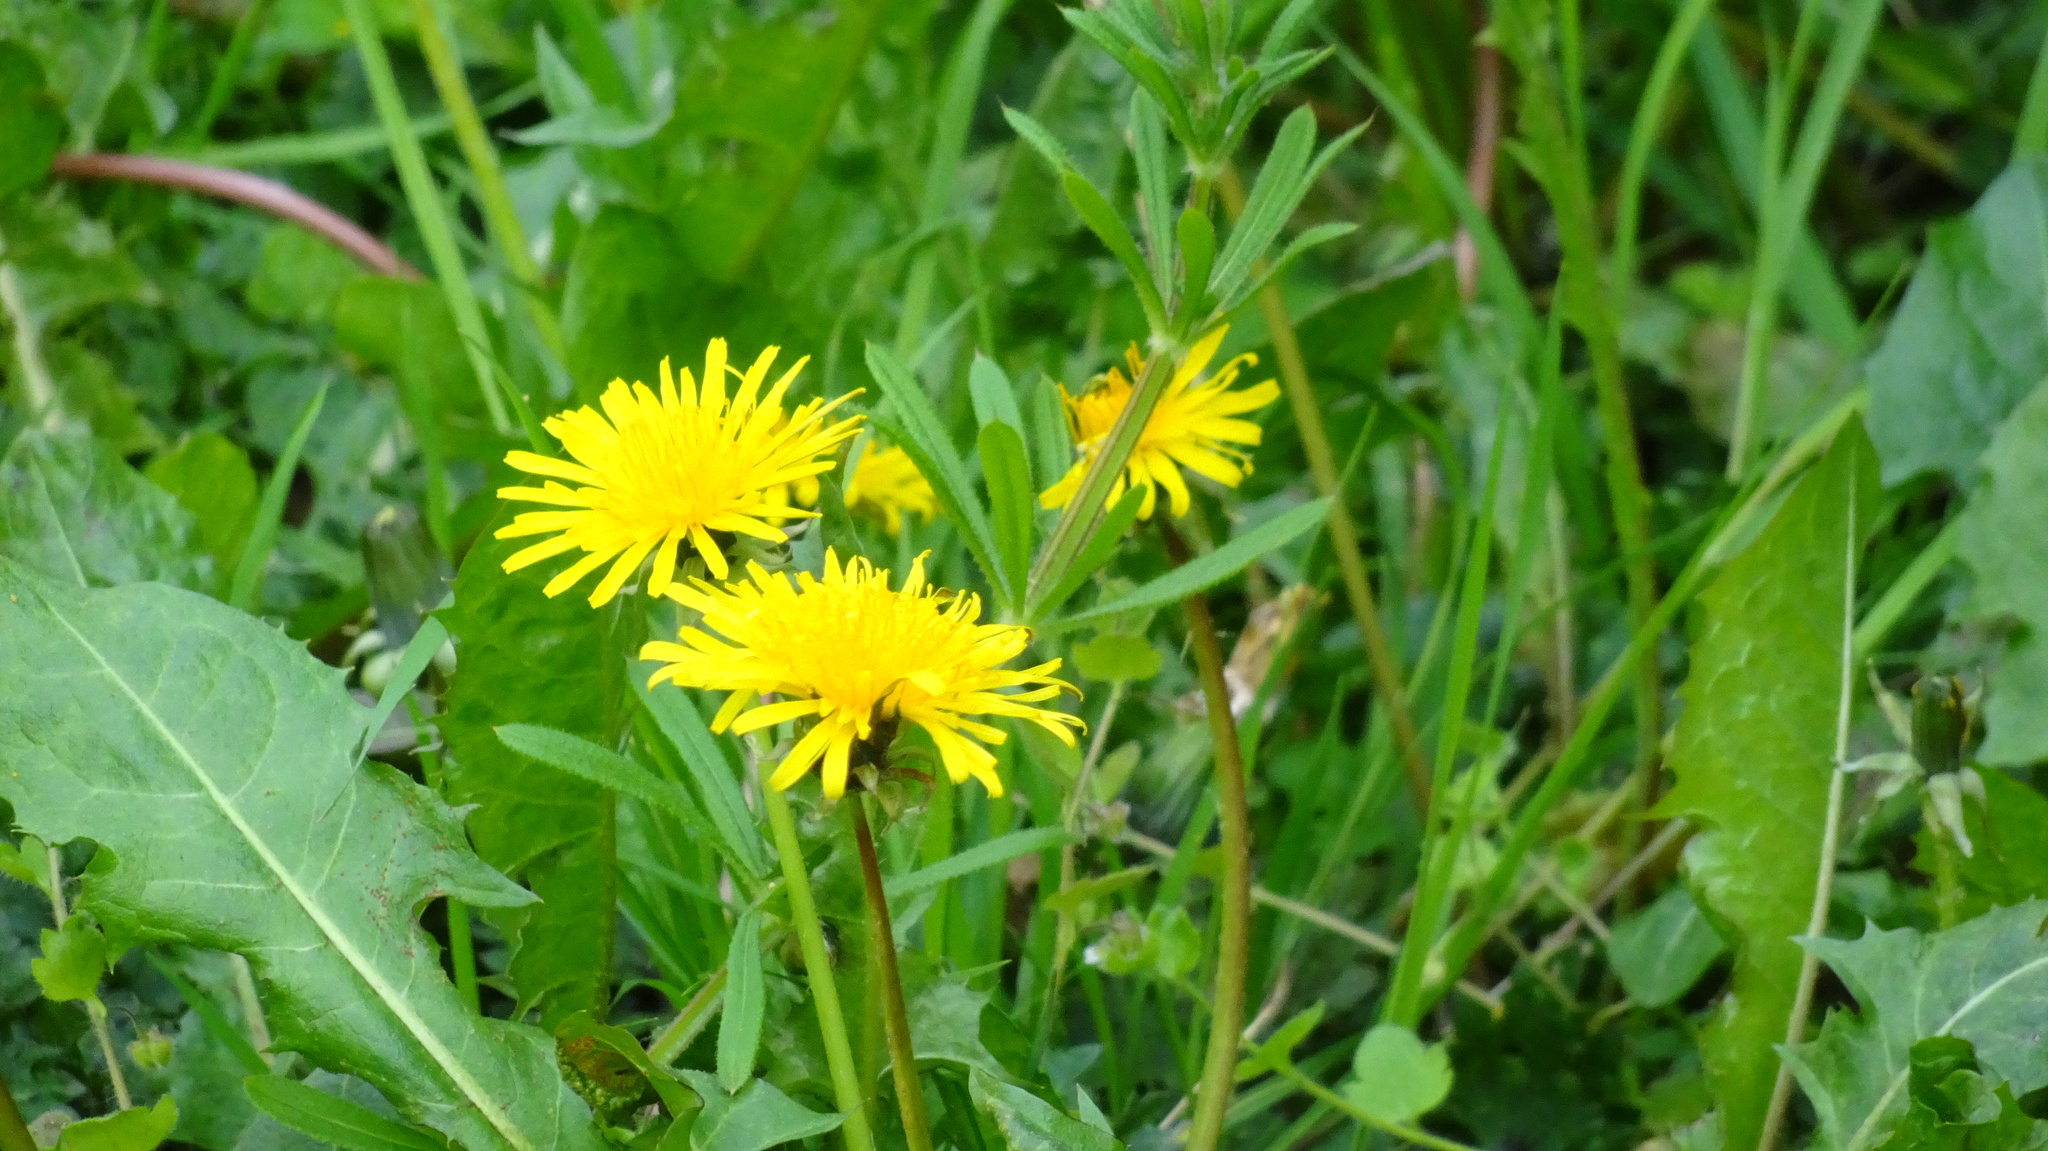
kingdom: Plantae
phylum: Tracheophyta
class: Magnoliopsida
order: Asterales
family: Asteraceae
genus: Taraxacum
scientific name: Taraxacum officinale
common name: Common dandelion
